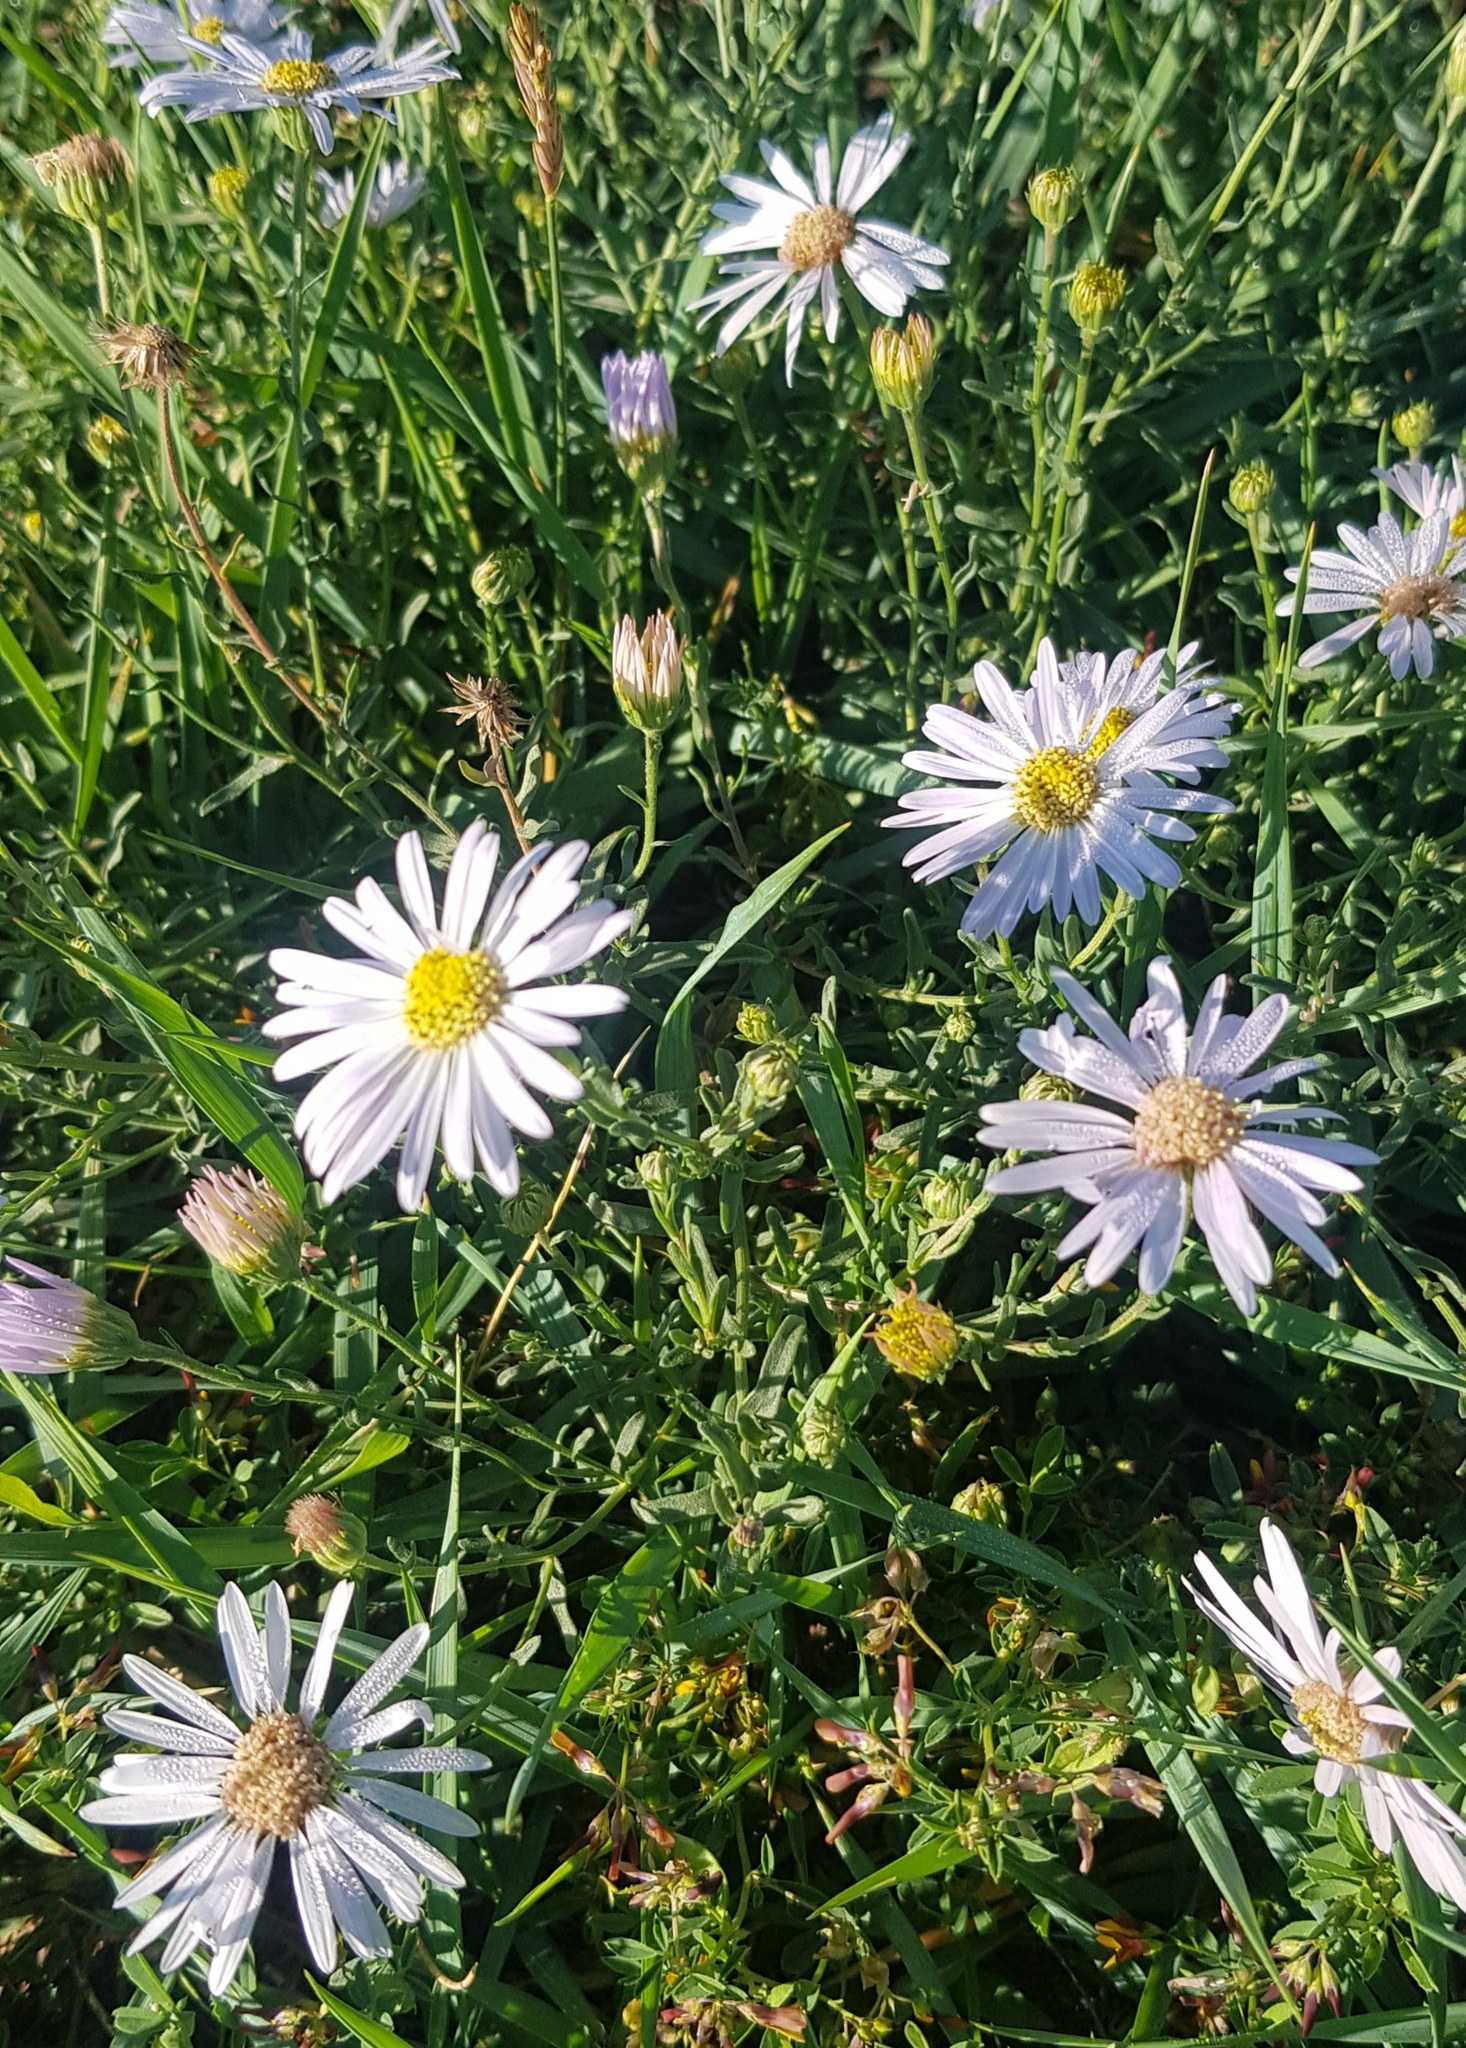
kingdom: Plantae
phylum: Tracheophyta
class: Magnoliopsida
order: Asterales
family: Asteraceae
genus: Heteropappus
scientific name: Heteropappus altaicus
